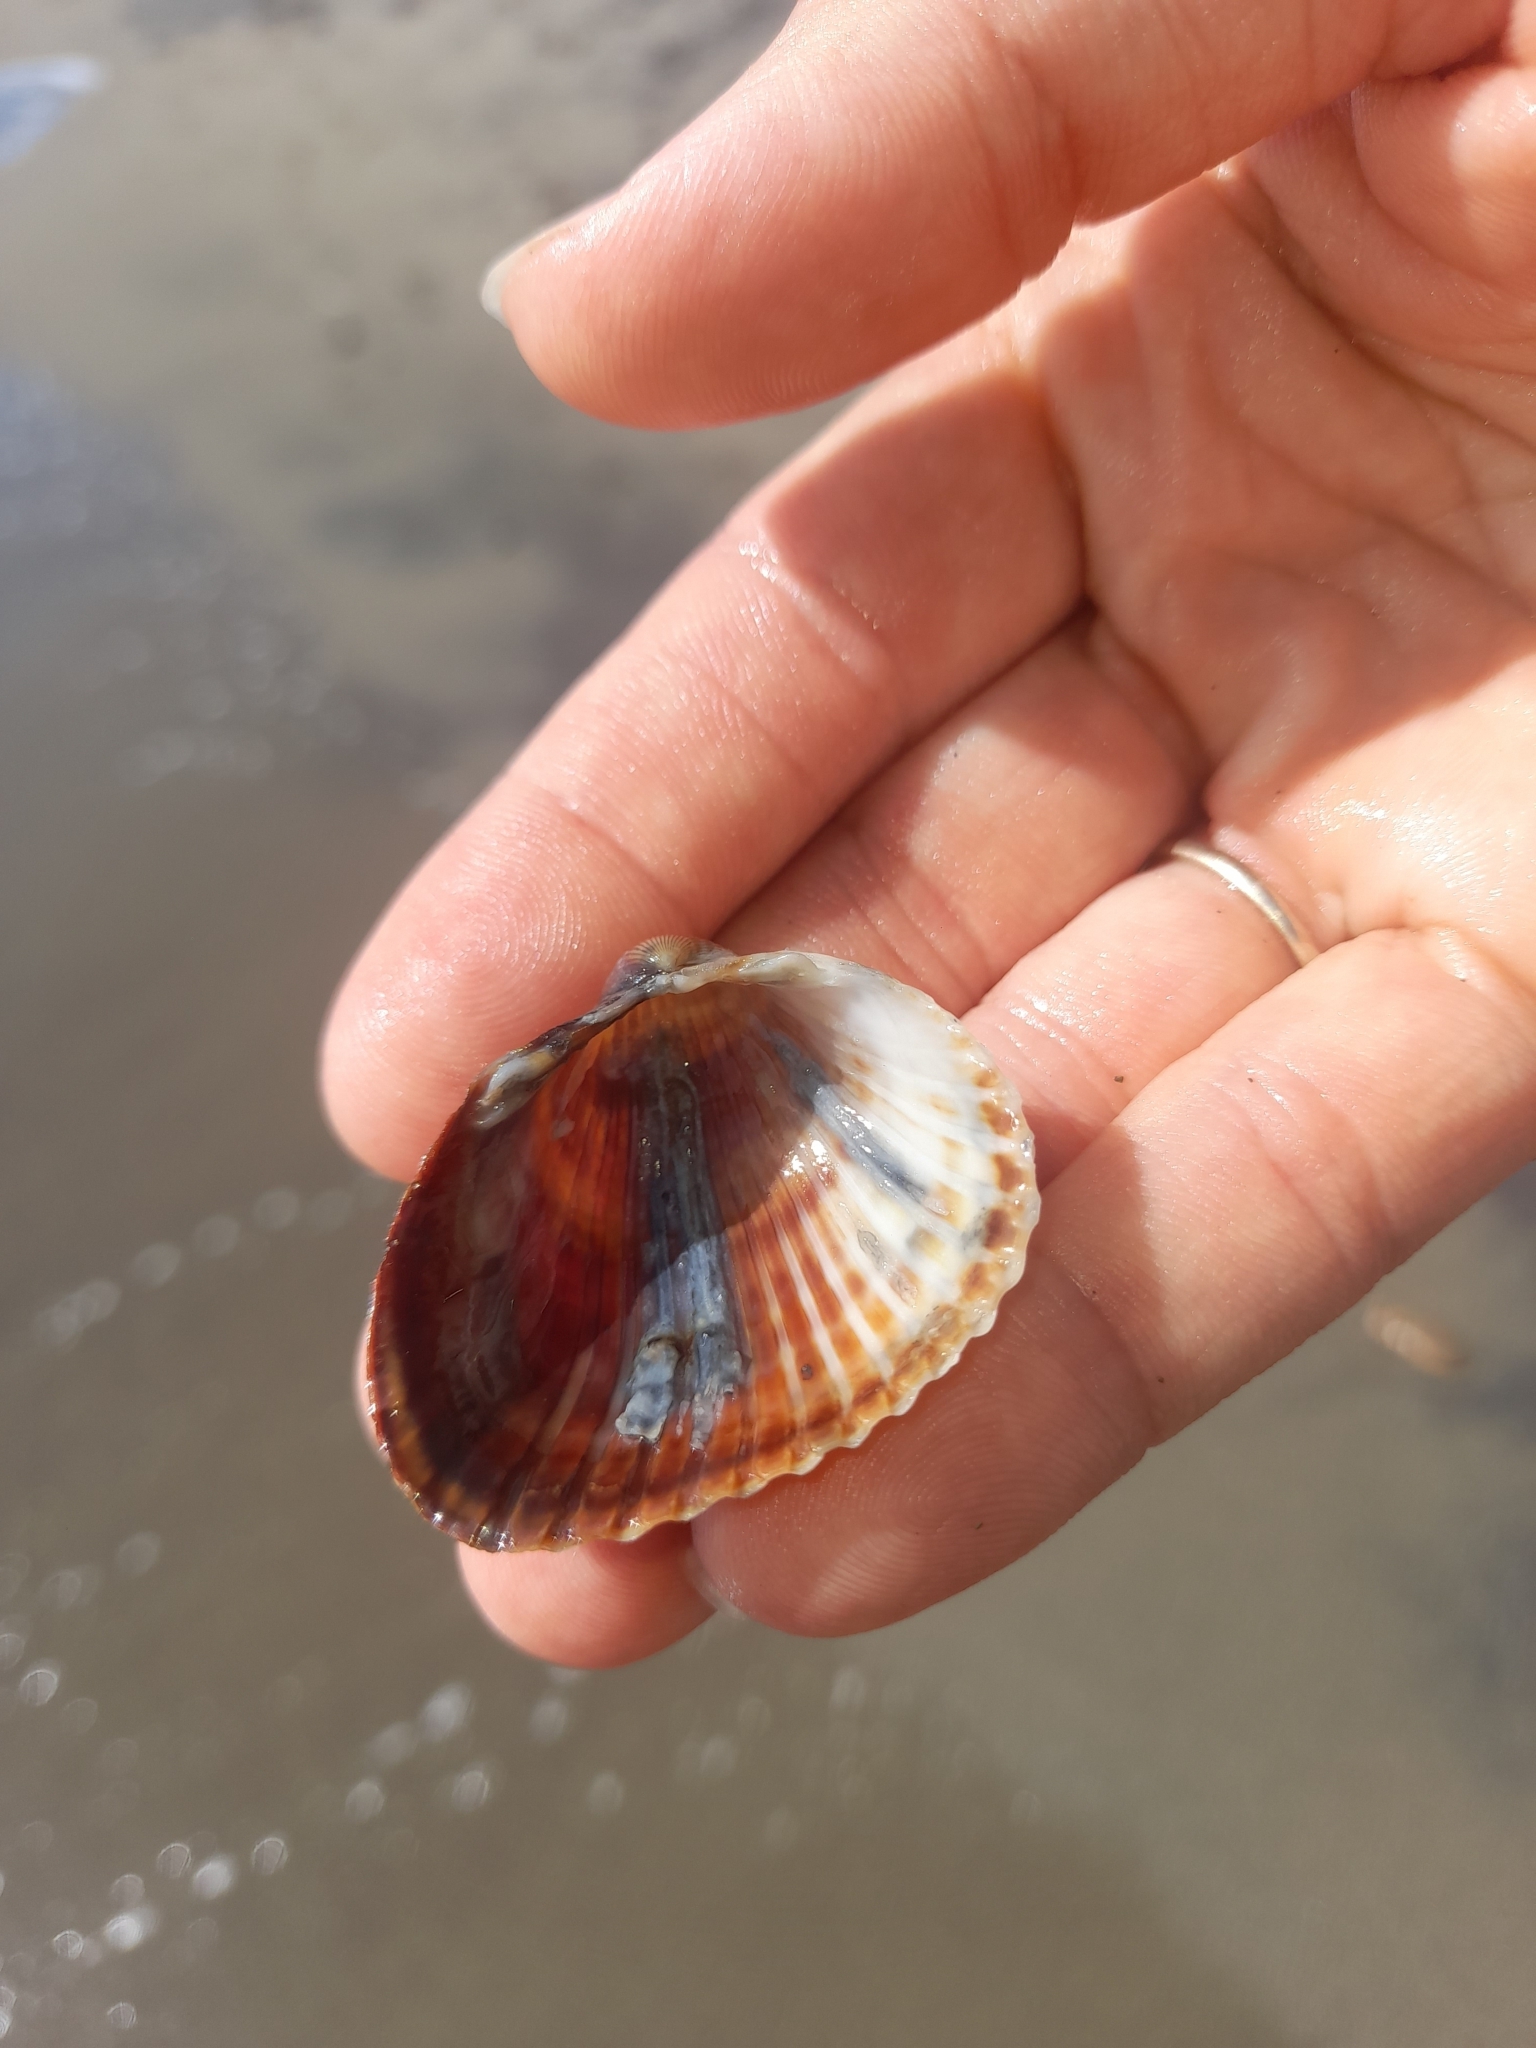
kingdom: Animalia
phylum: Mollusca
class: Bivalvia
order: Cardiida
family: Cardiidae
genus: Cerastoderma
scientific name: Cerastoderma glaucum
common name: Lagoon cockle
